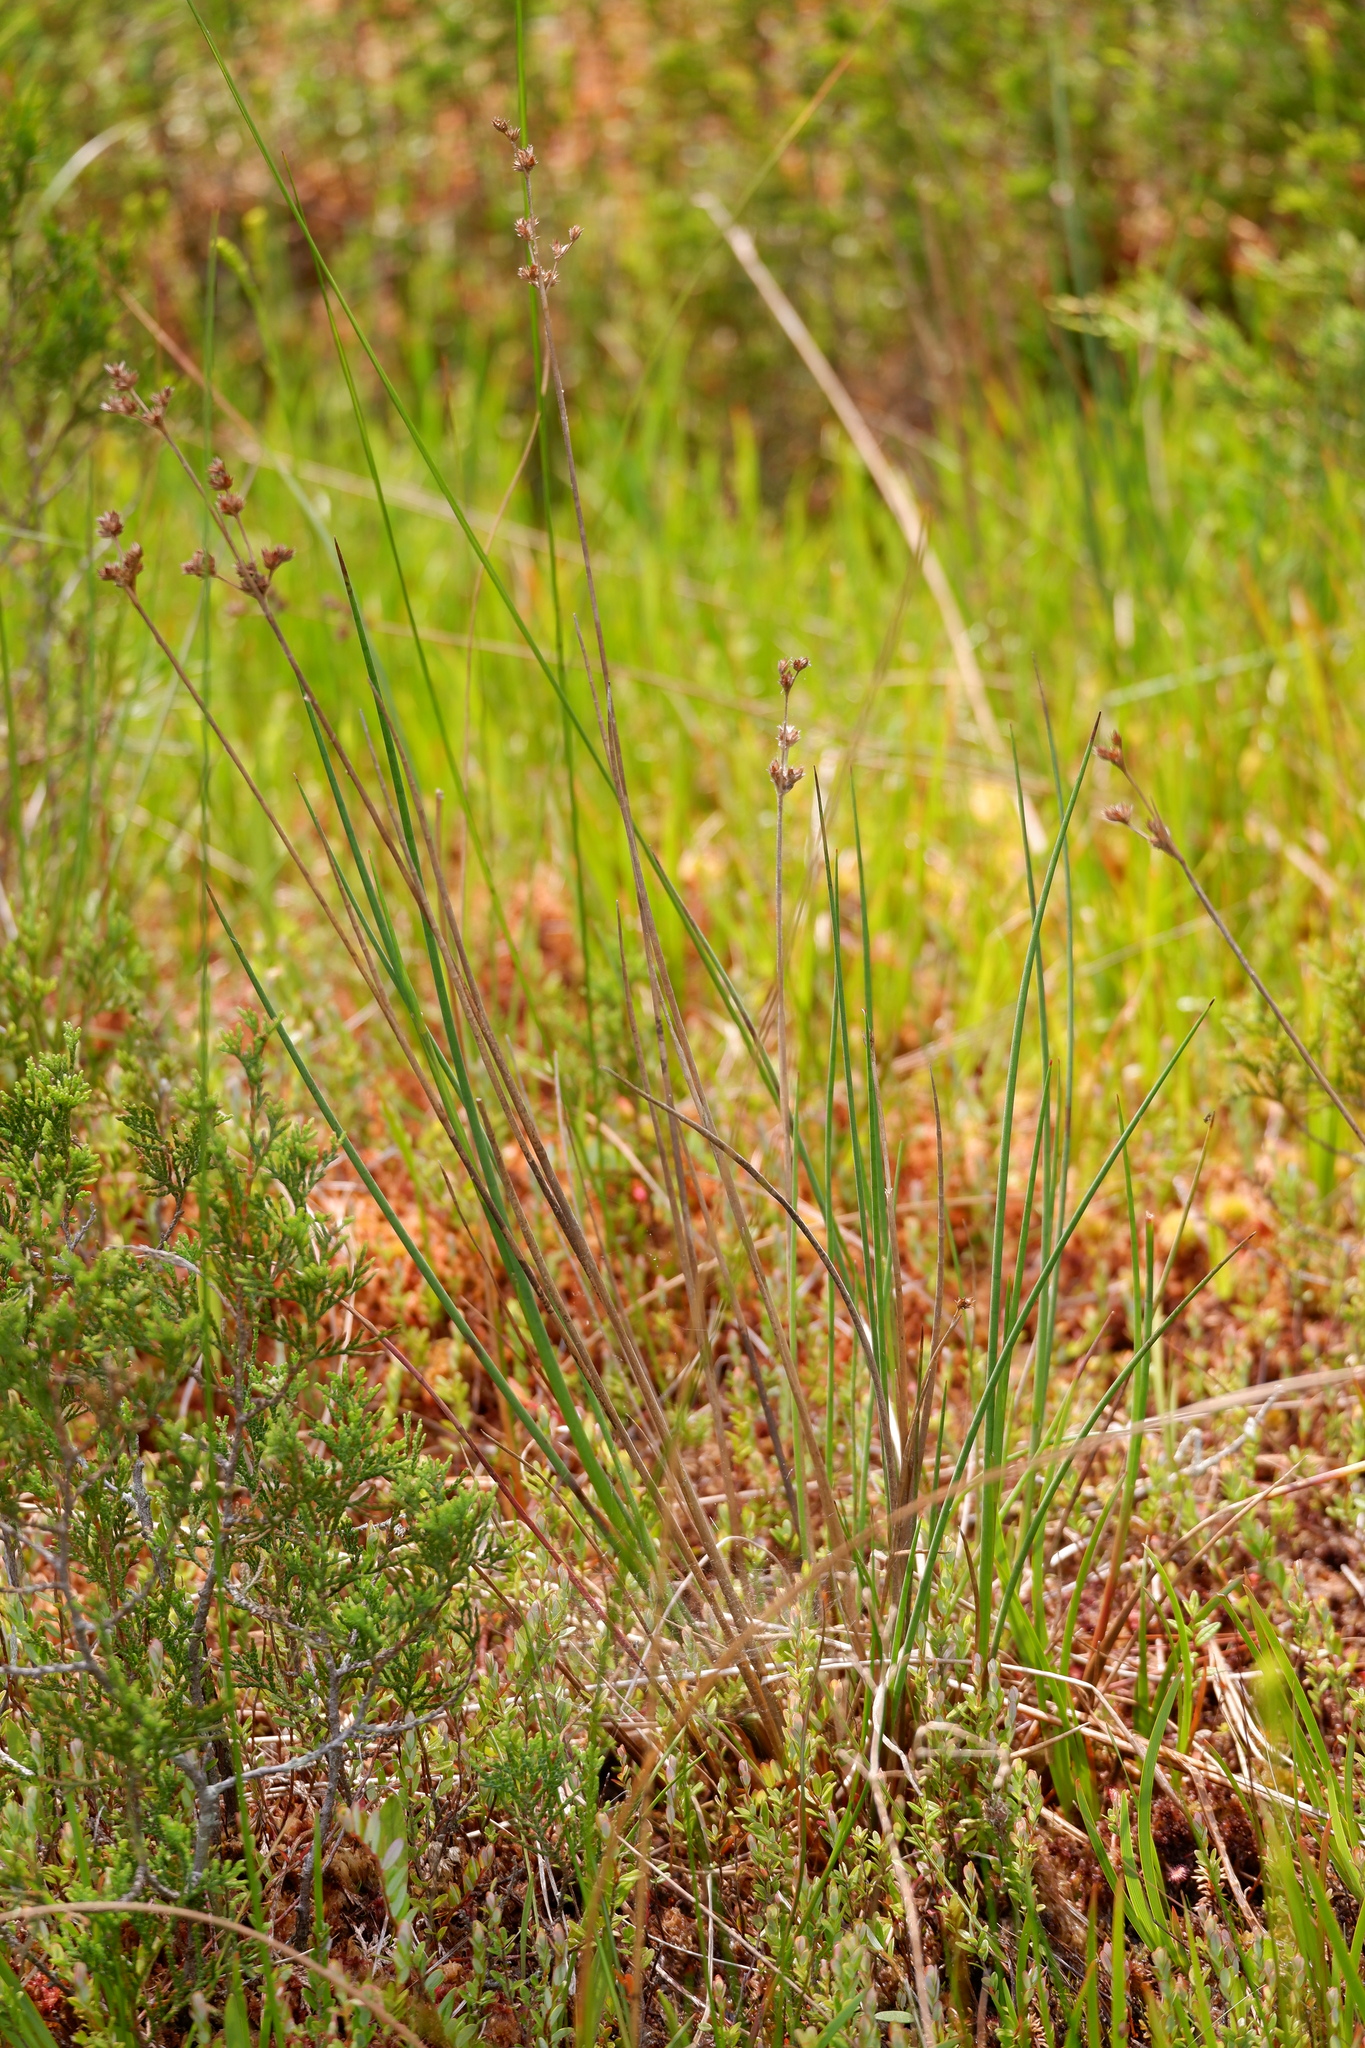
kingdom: Plantae
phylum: Tracheophyta
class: Liliopsida
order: Poales
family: Juncaceae
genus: Juncus
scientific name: Juncus caesariensis
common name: New jersey rush
